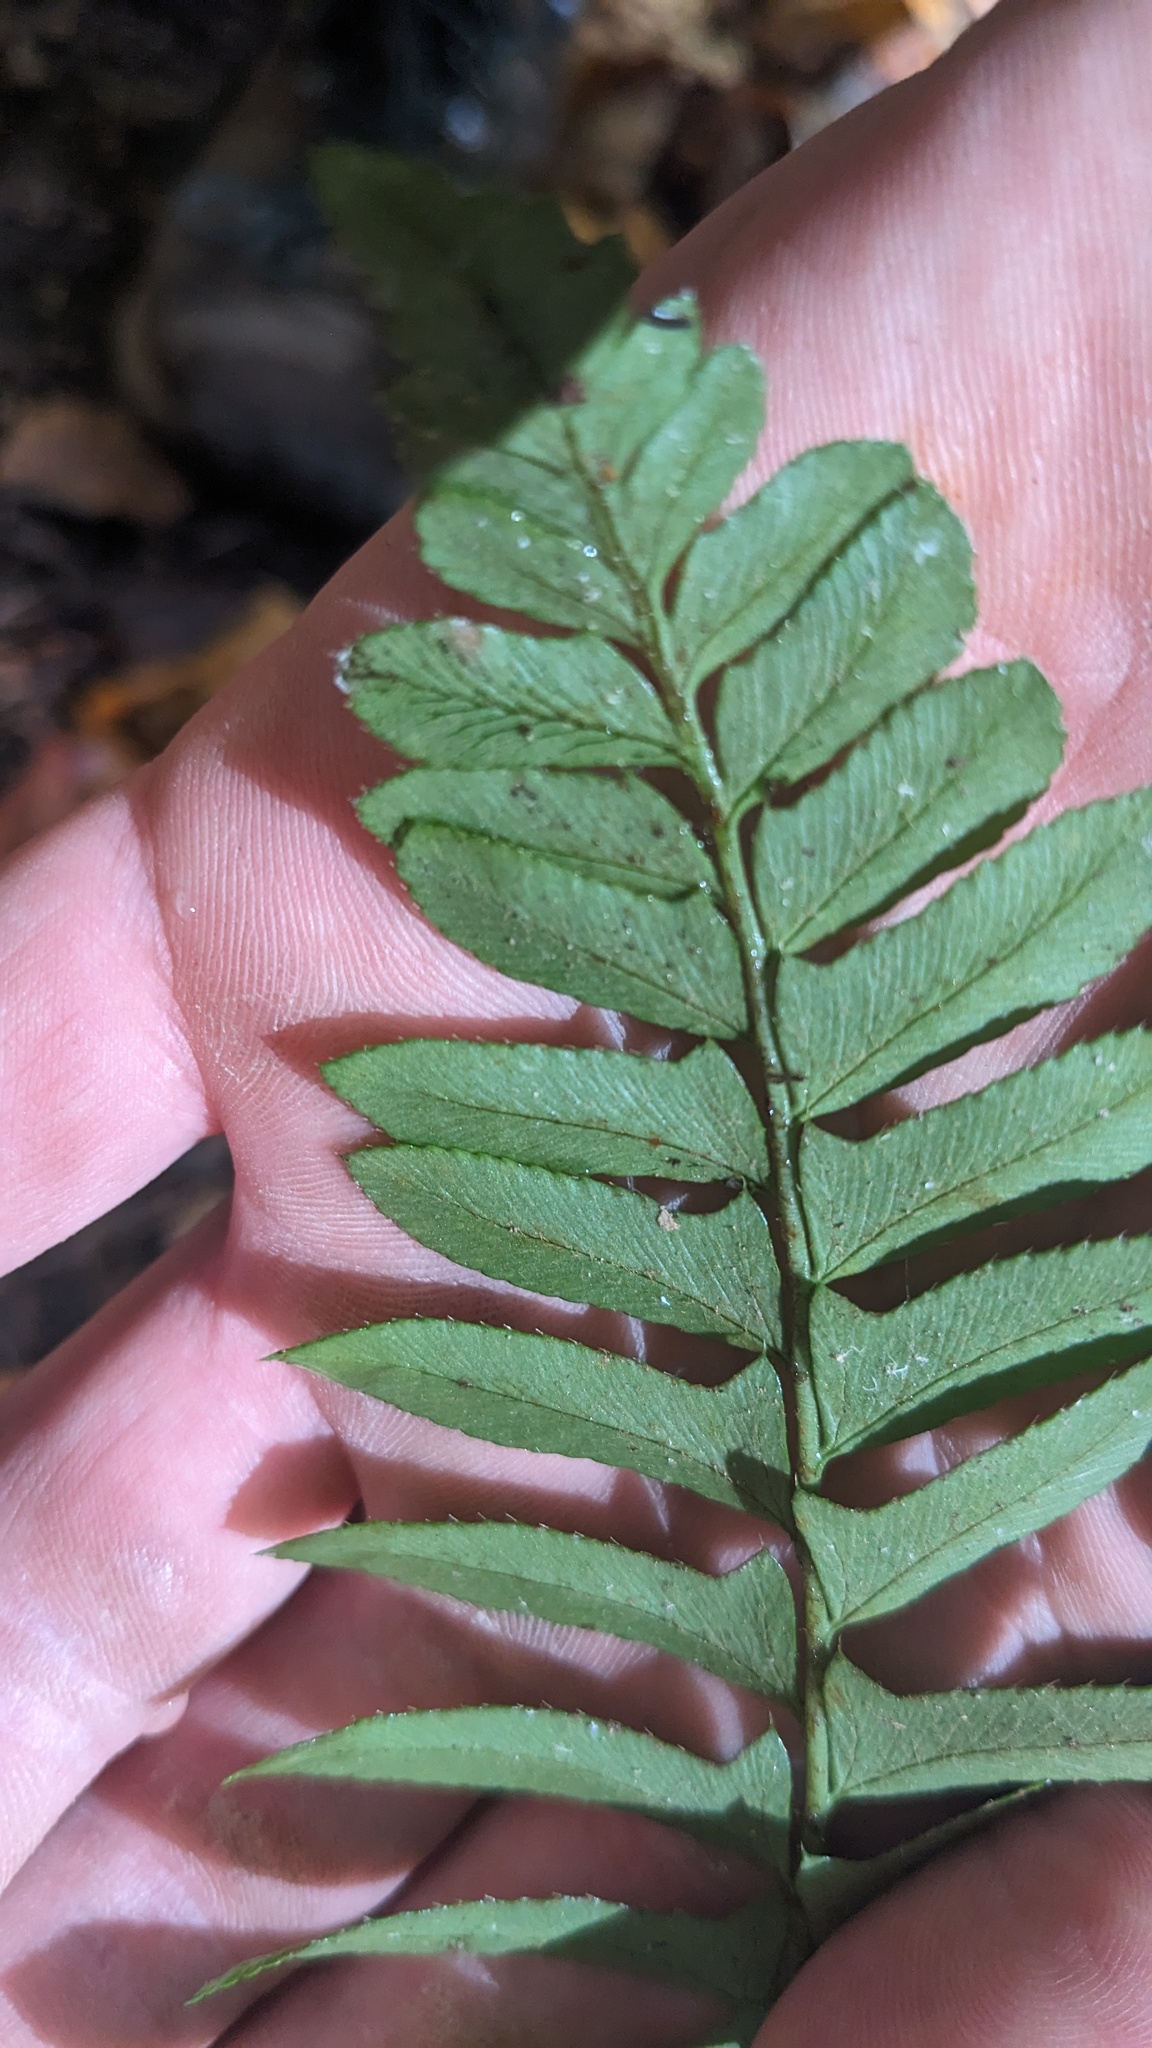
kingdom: Plantae
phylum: Tracheophyta
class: Polypodiopsida
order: Polypodiales
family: Dryopteridaceae
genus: Polystichum
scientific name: Polystichum acrostichoides
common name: Christmas fern
